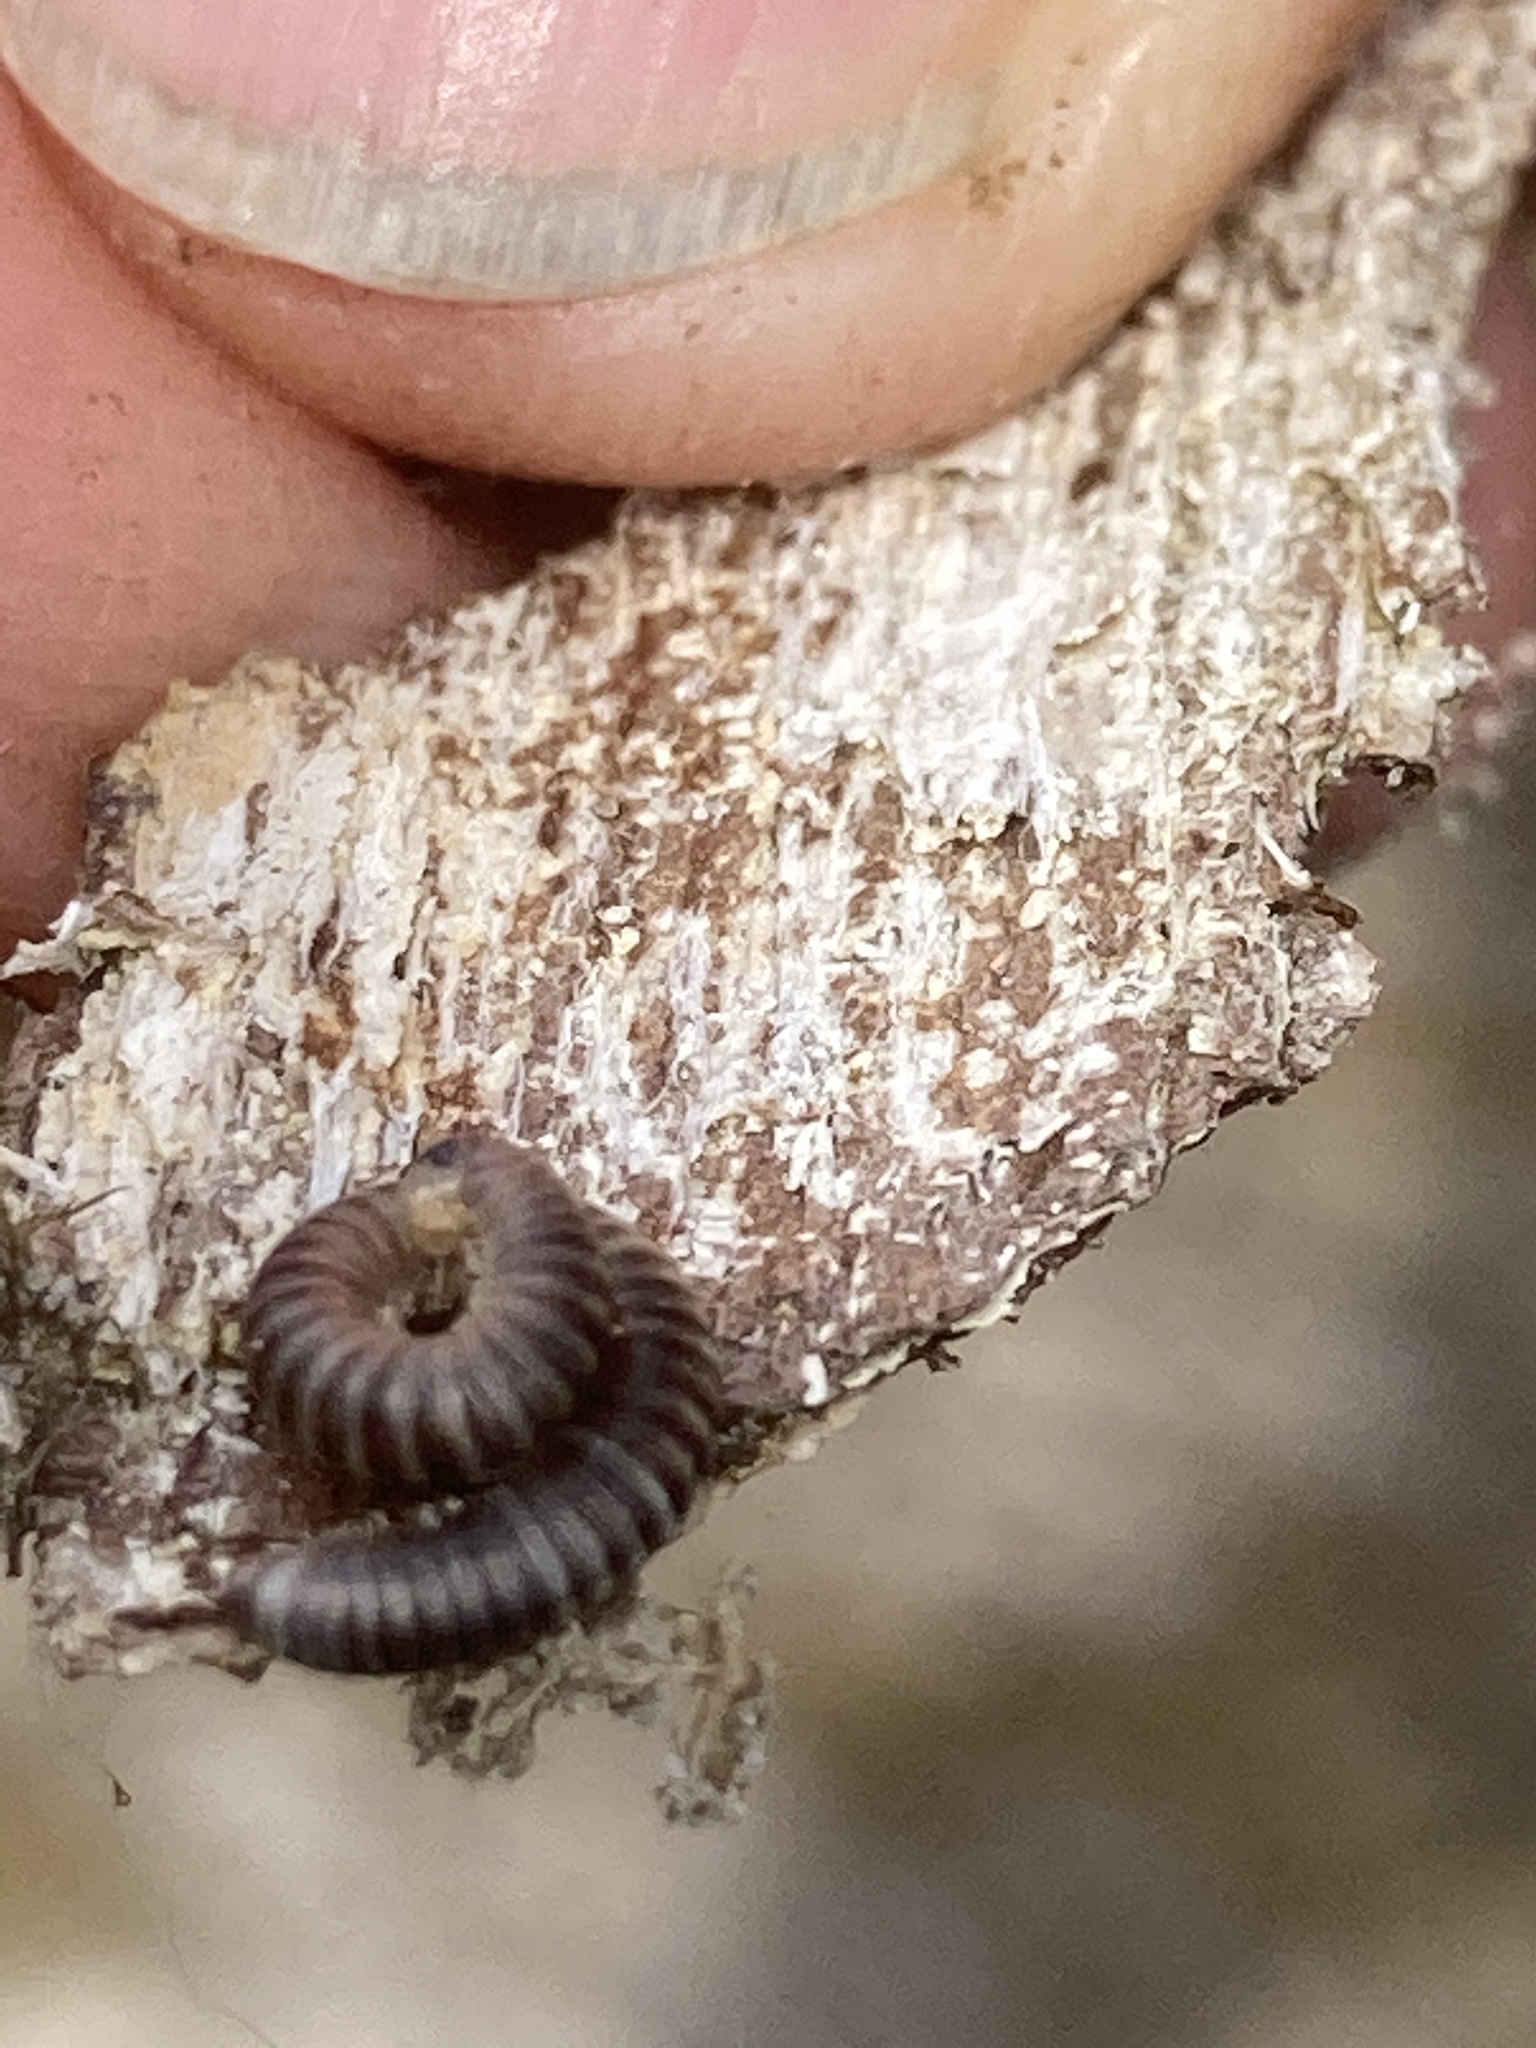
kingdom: Animalia
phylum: Arthropoda
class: Diplopoda
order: Julida
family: Julidae
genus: Cylindroiulus
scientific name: Cylindroiulus caeruleocinctus
